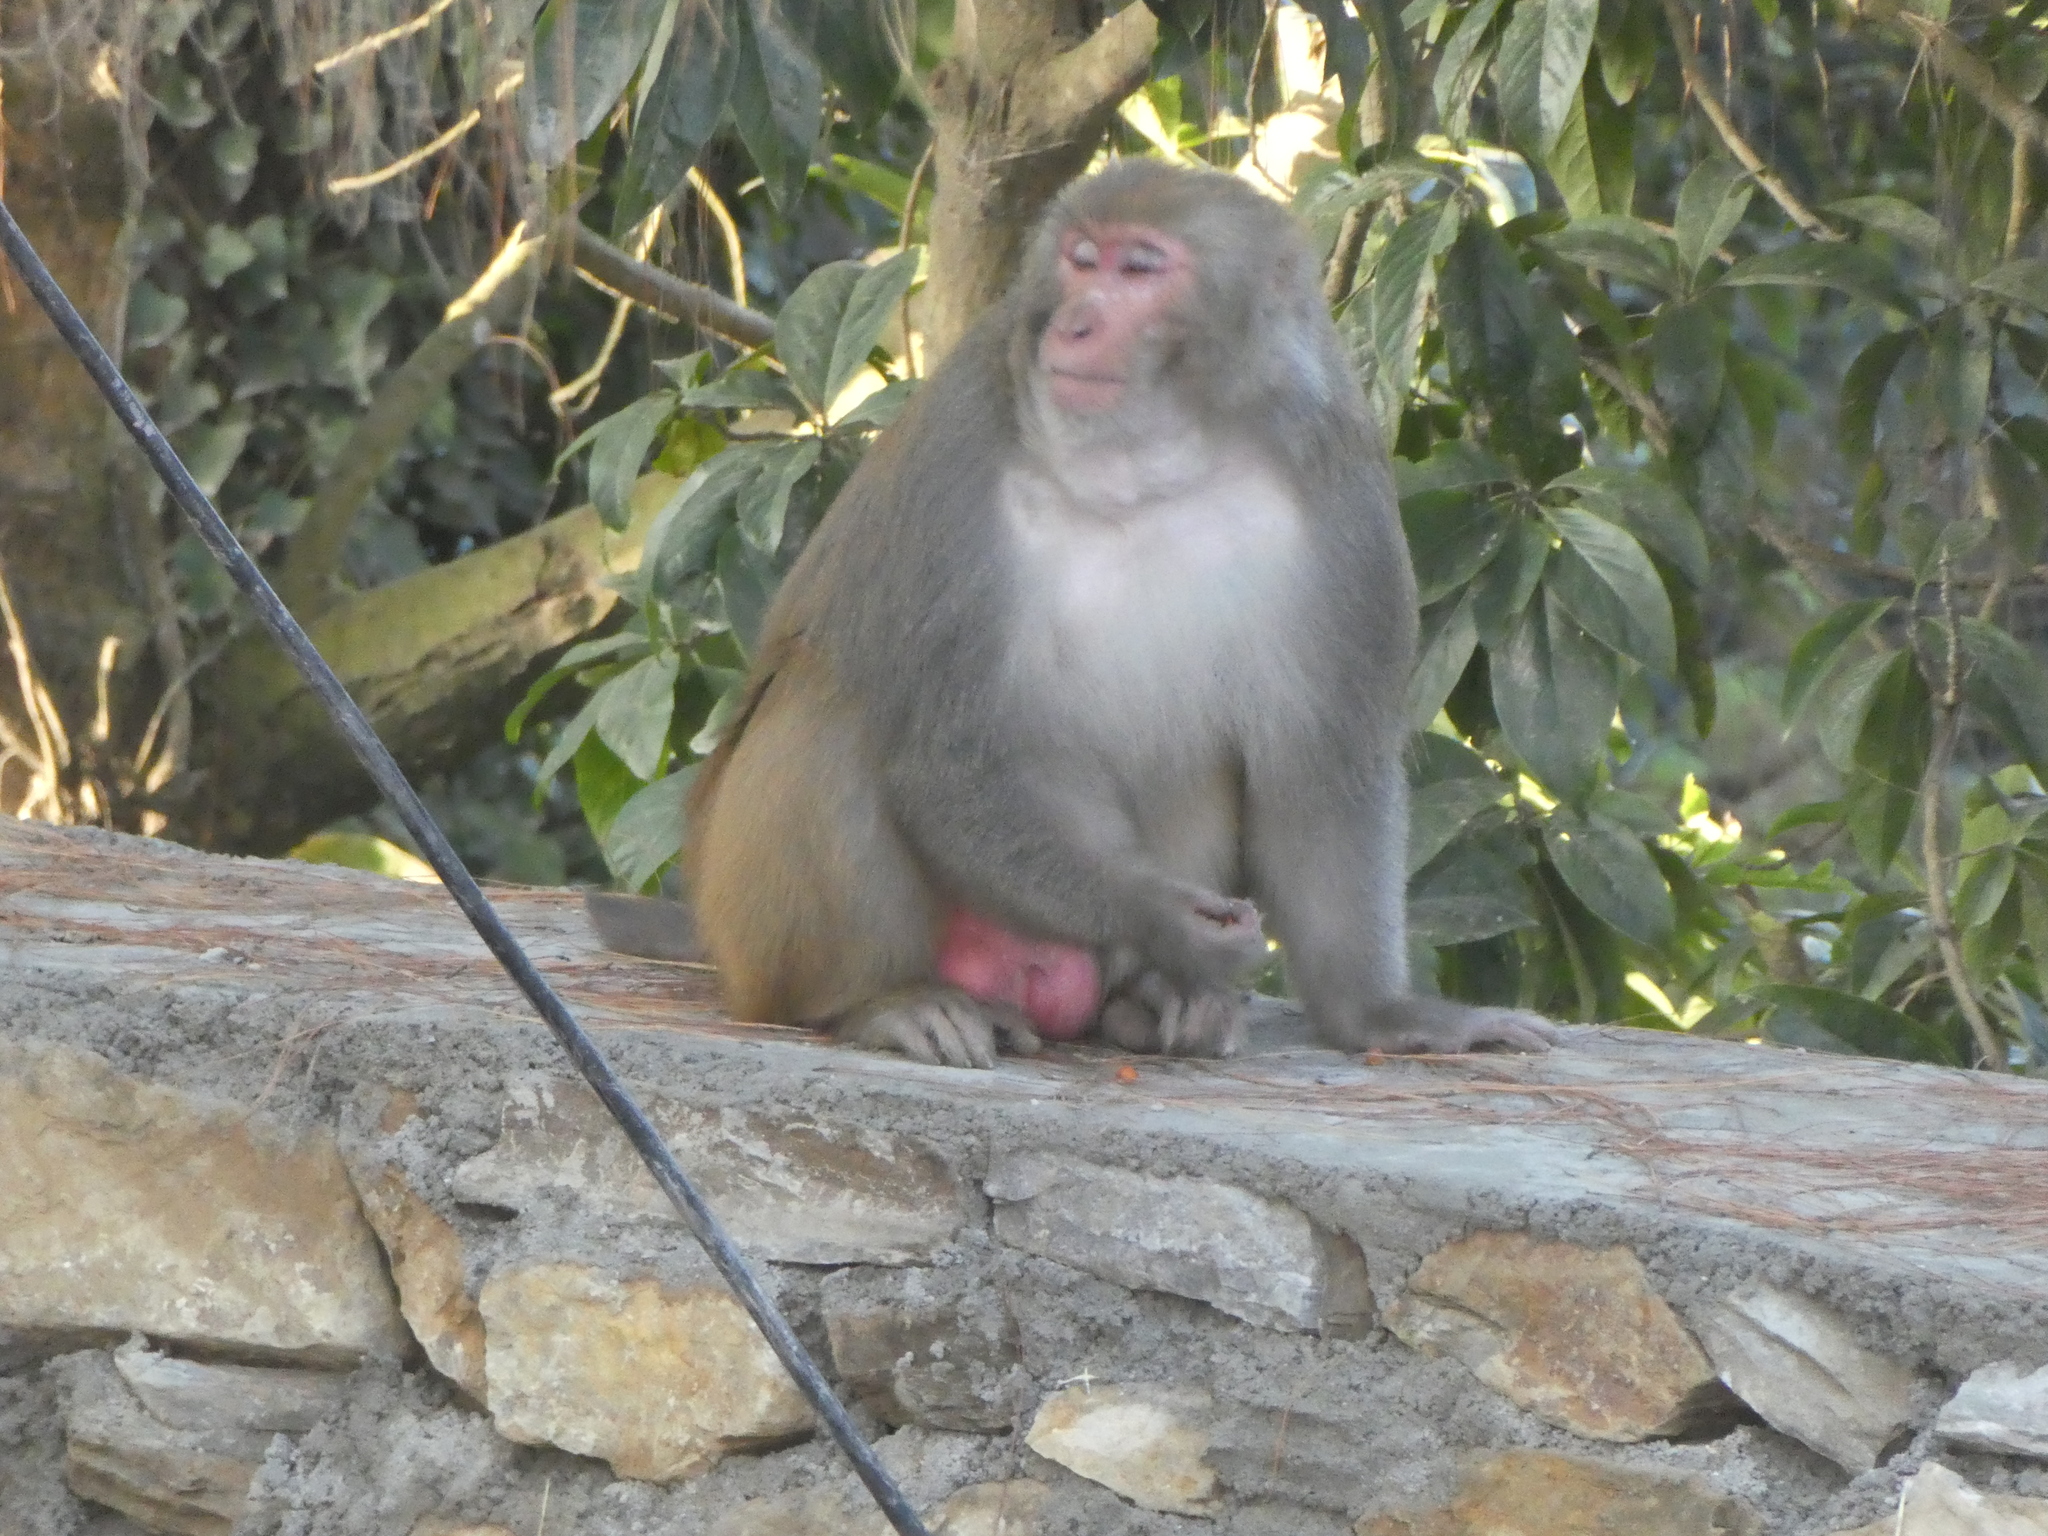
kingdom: Animalia
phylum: Chordata
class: Mammalia
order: Primates
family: Cercopithecidae
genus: Macaca
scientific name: Macaca mulatta
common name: Rhesus monkey
